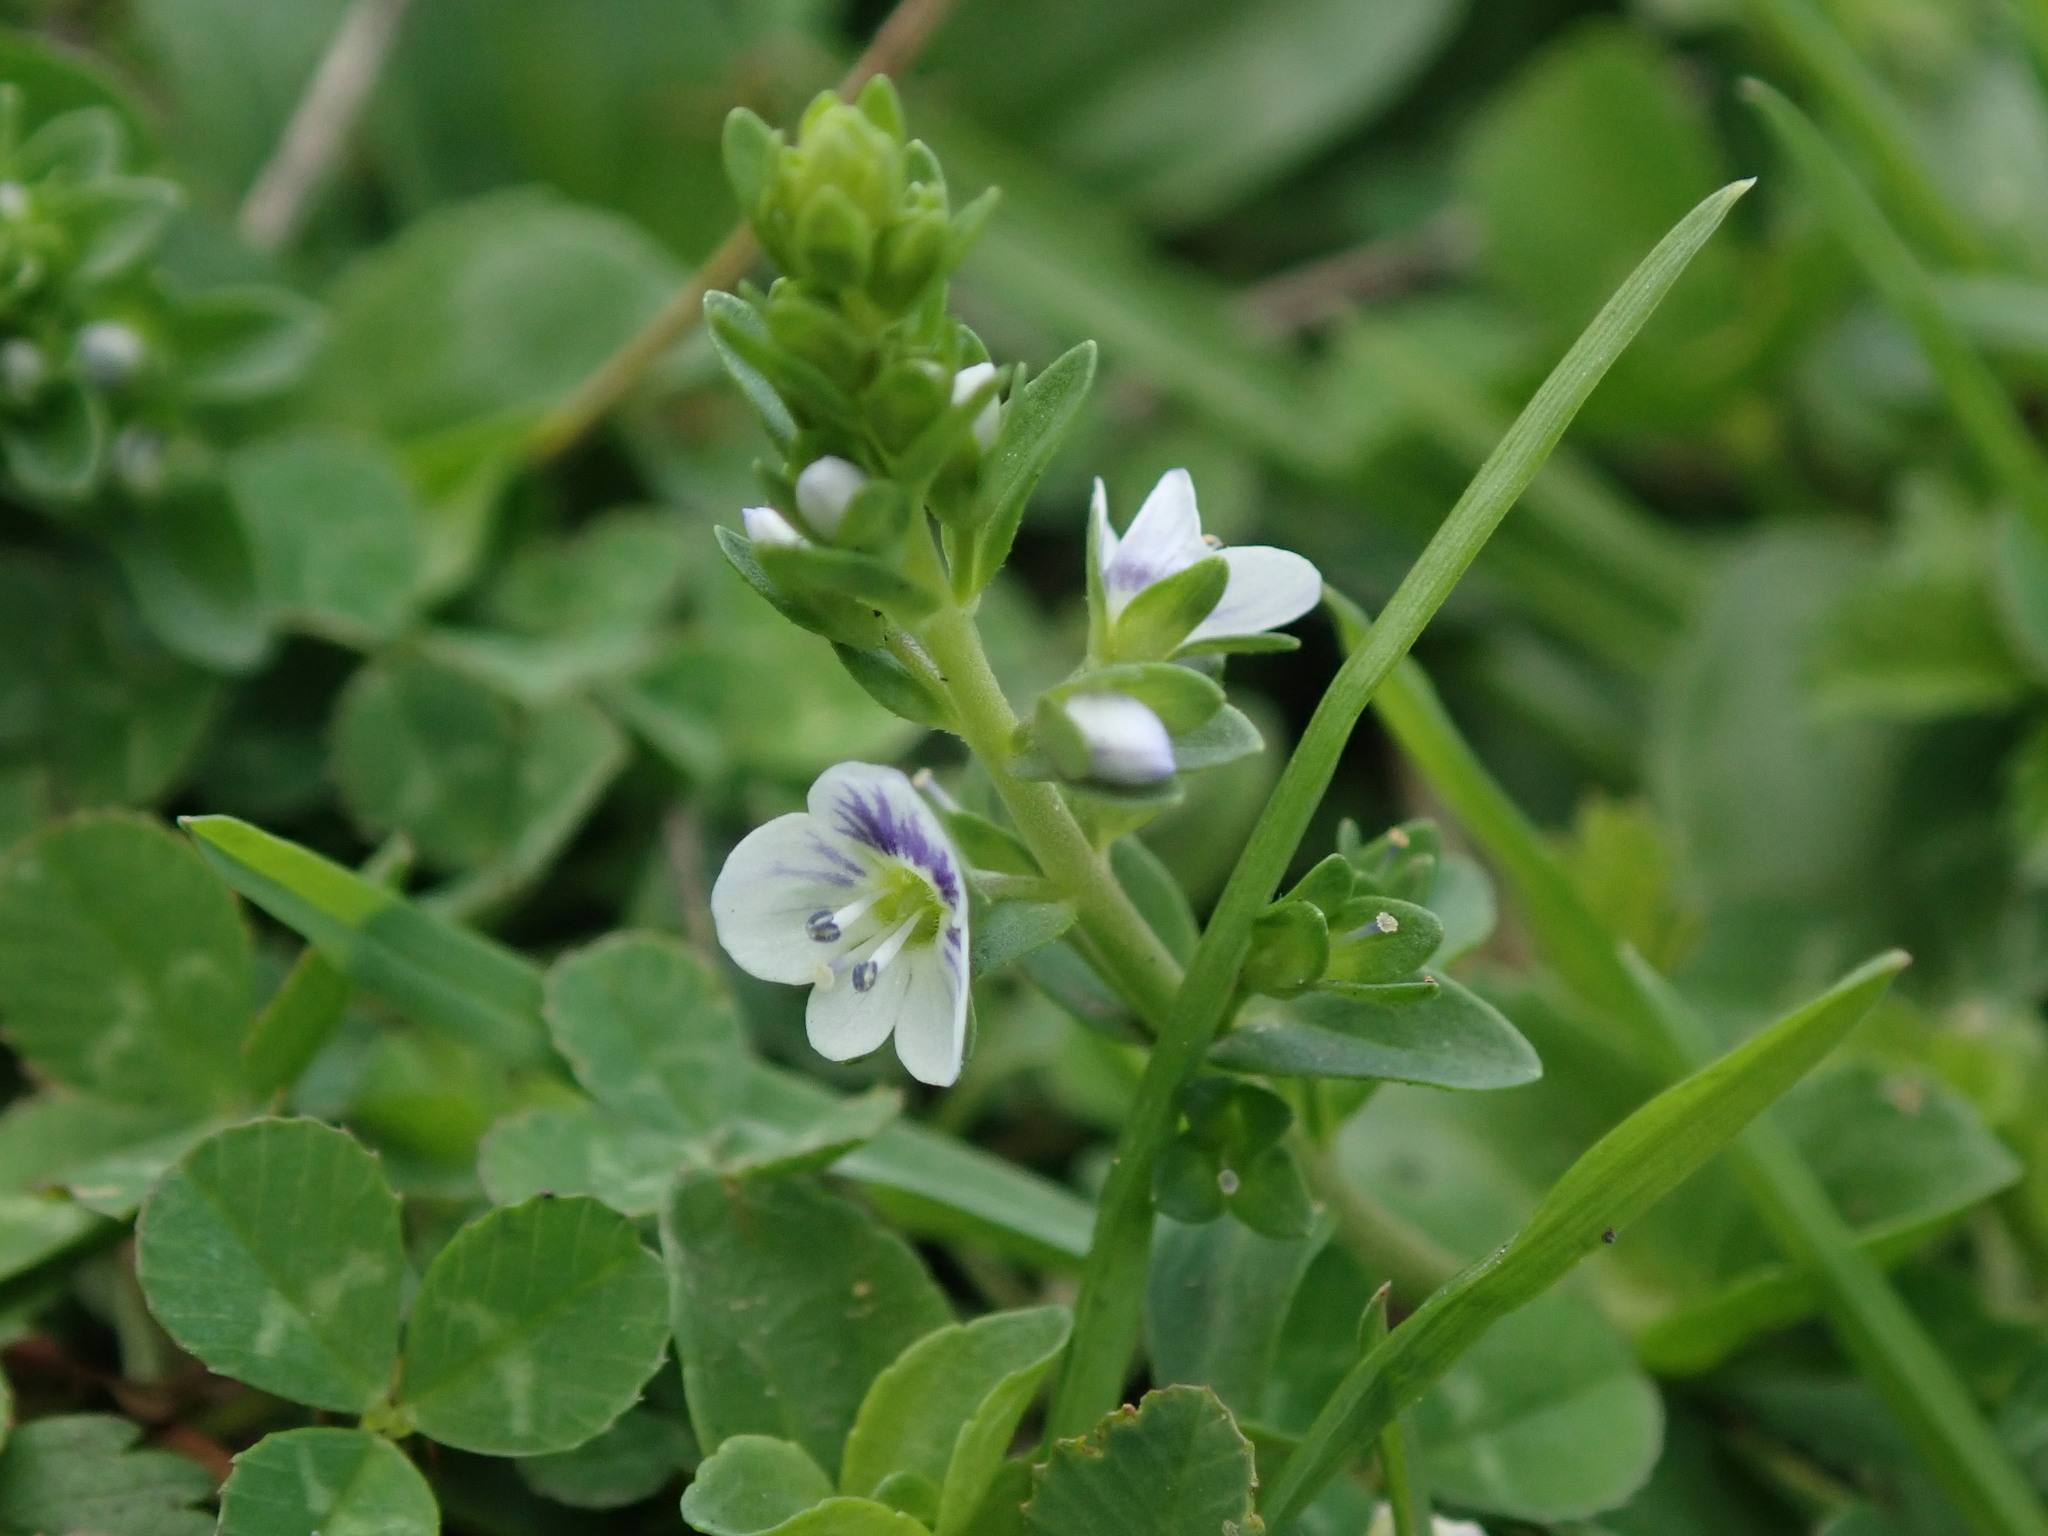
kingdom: Plantae
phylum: Tracheophyta
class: Magnoliopsida
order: Lamiales
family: Plantaginaceae
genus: Veronica
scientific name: Veronica serpyllifolia
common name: Thyme-leaved speedwell
